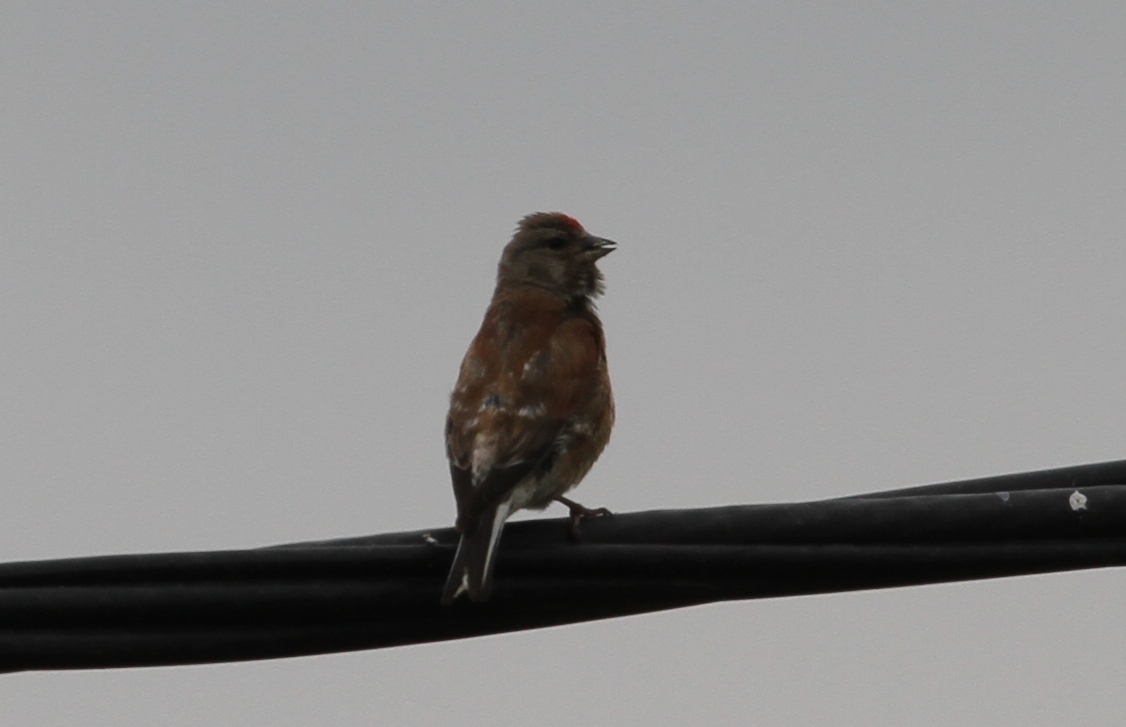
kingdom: Animalia
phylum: Chordata
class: Aves
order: Passeriformes
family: Fringillidae
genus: Linaria
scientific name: Linaria cannabina
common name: Common linnet
